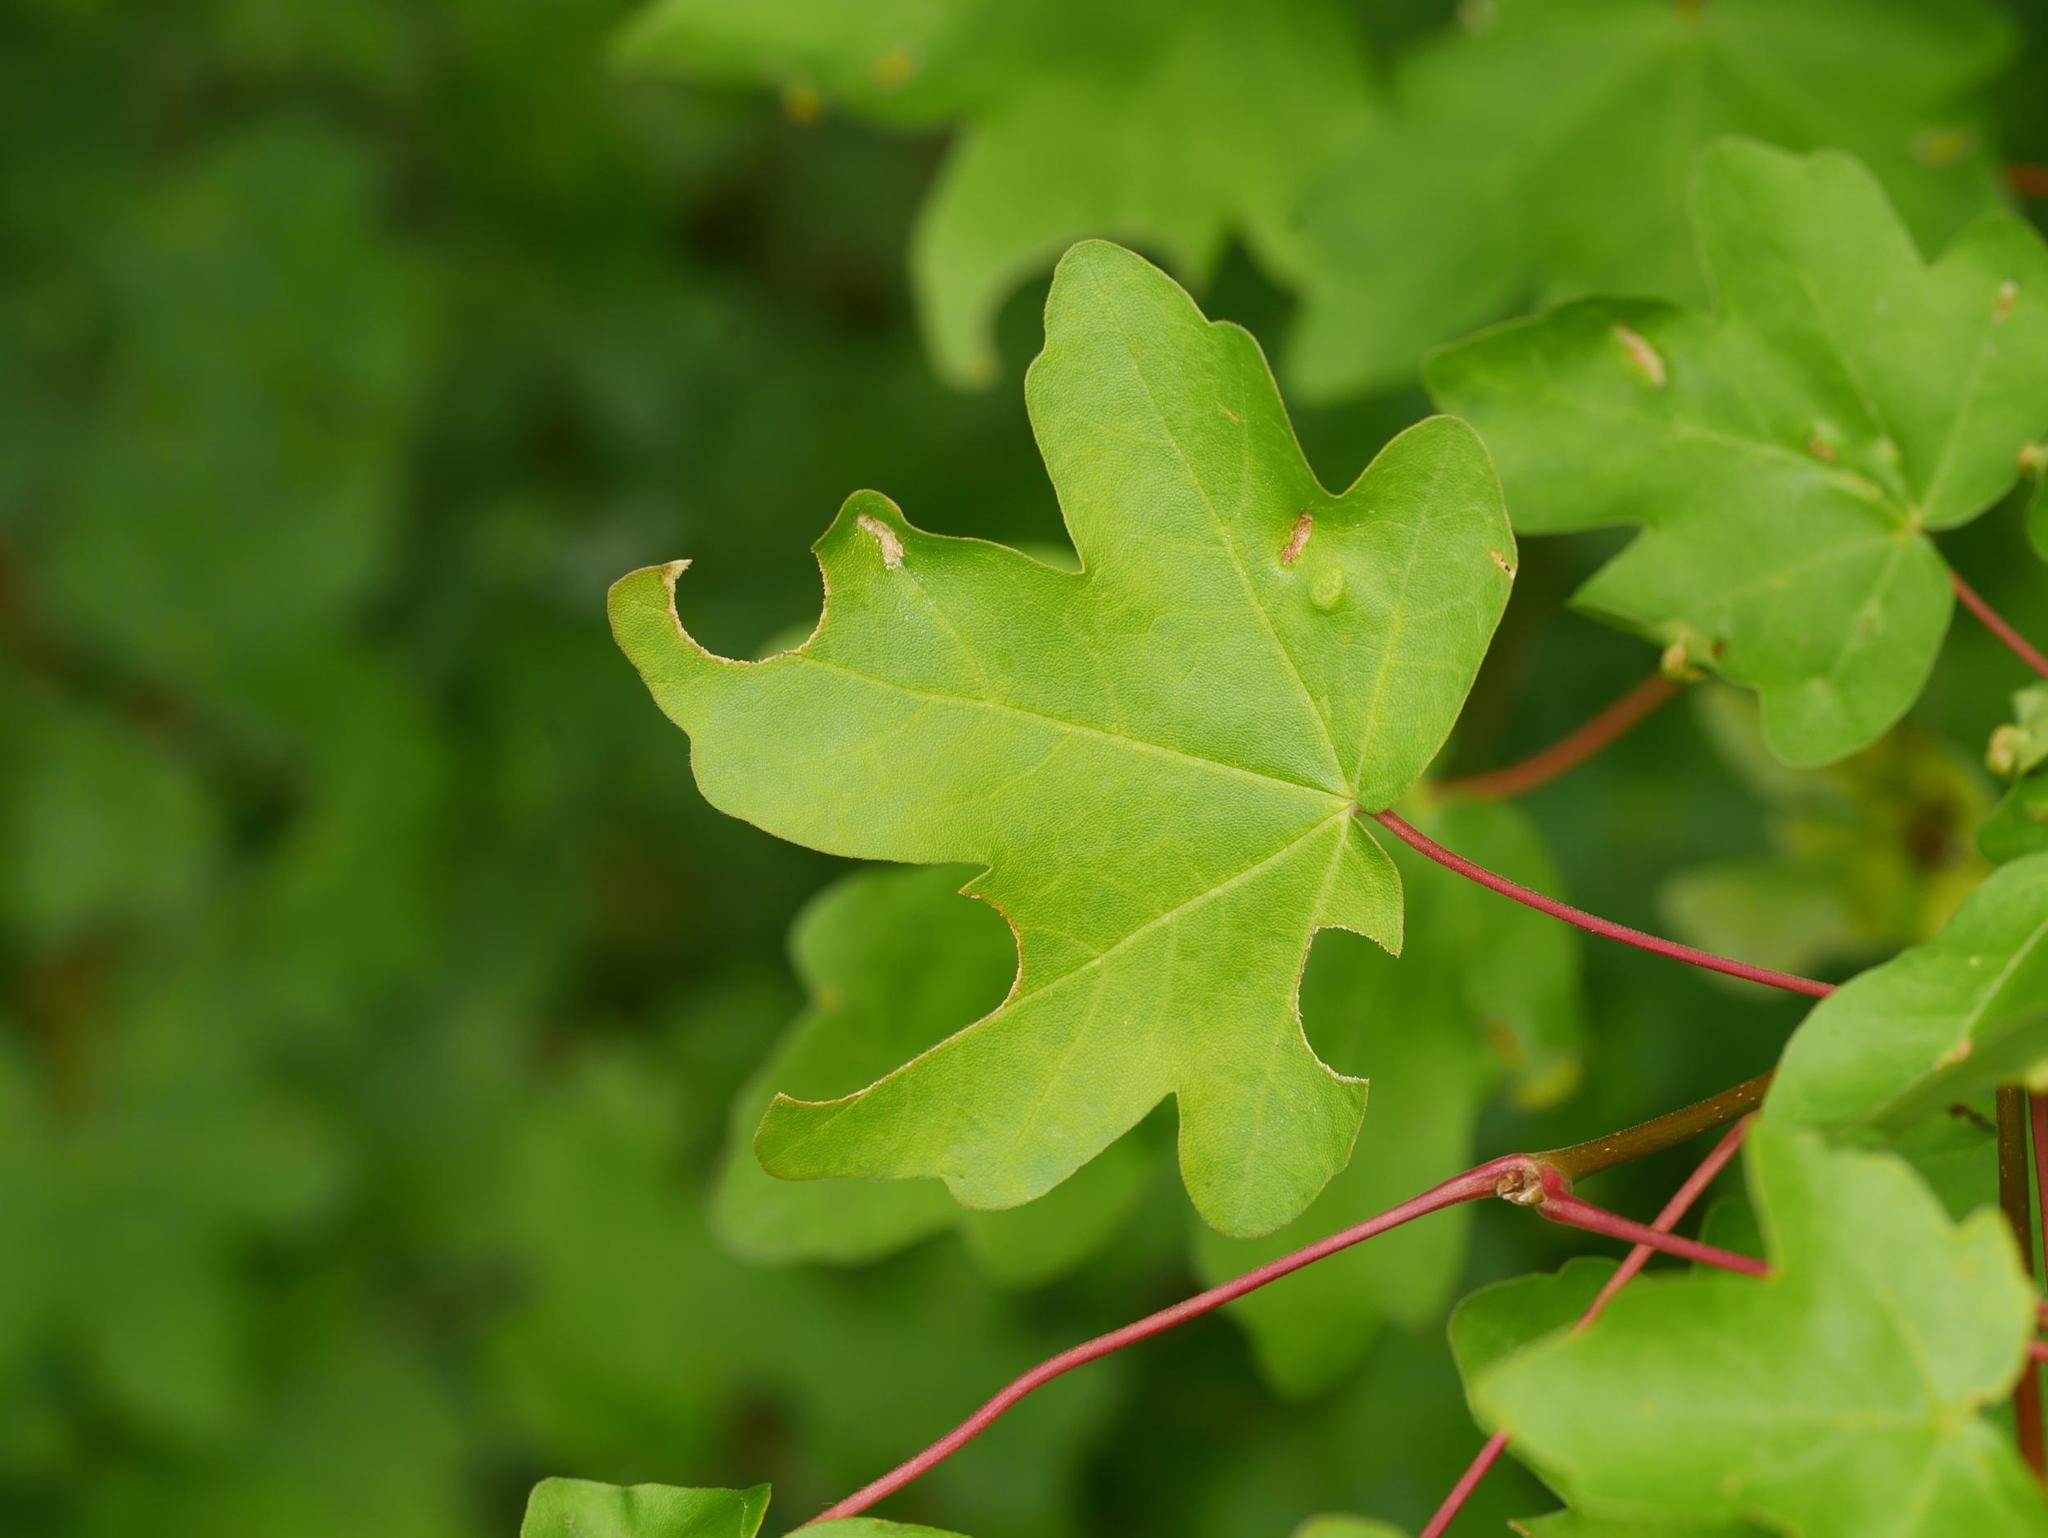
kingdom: Plantae
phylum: Tracheophyta
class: Magnoliopsida
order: Sapindales
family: Sapindaceae
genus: Acer
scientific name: Acer campestre
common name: Field maple
